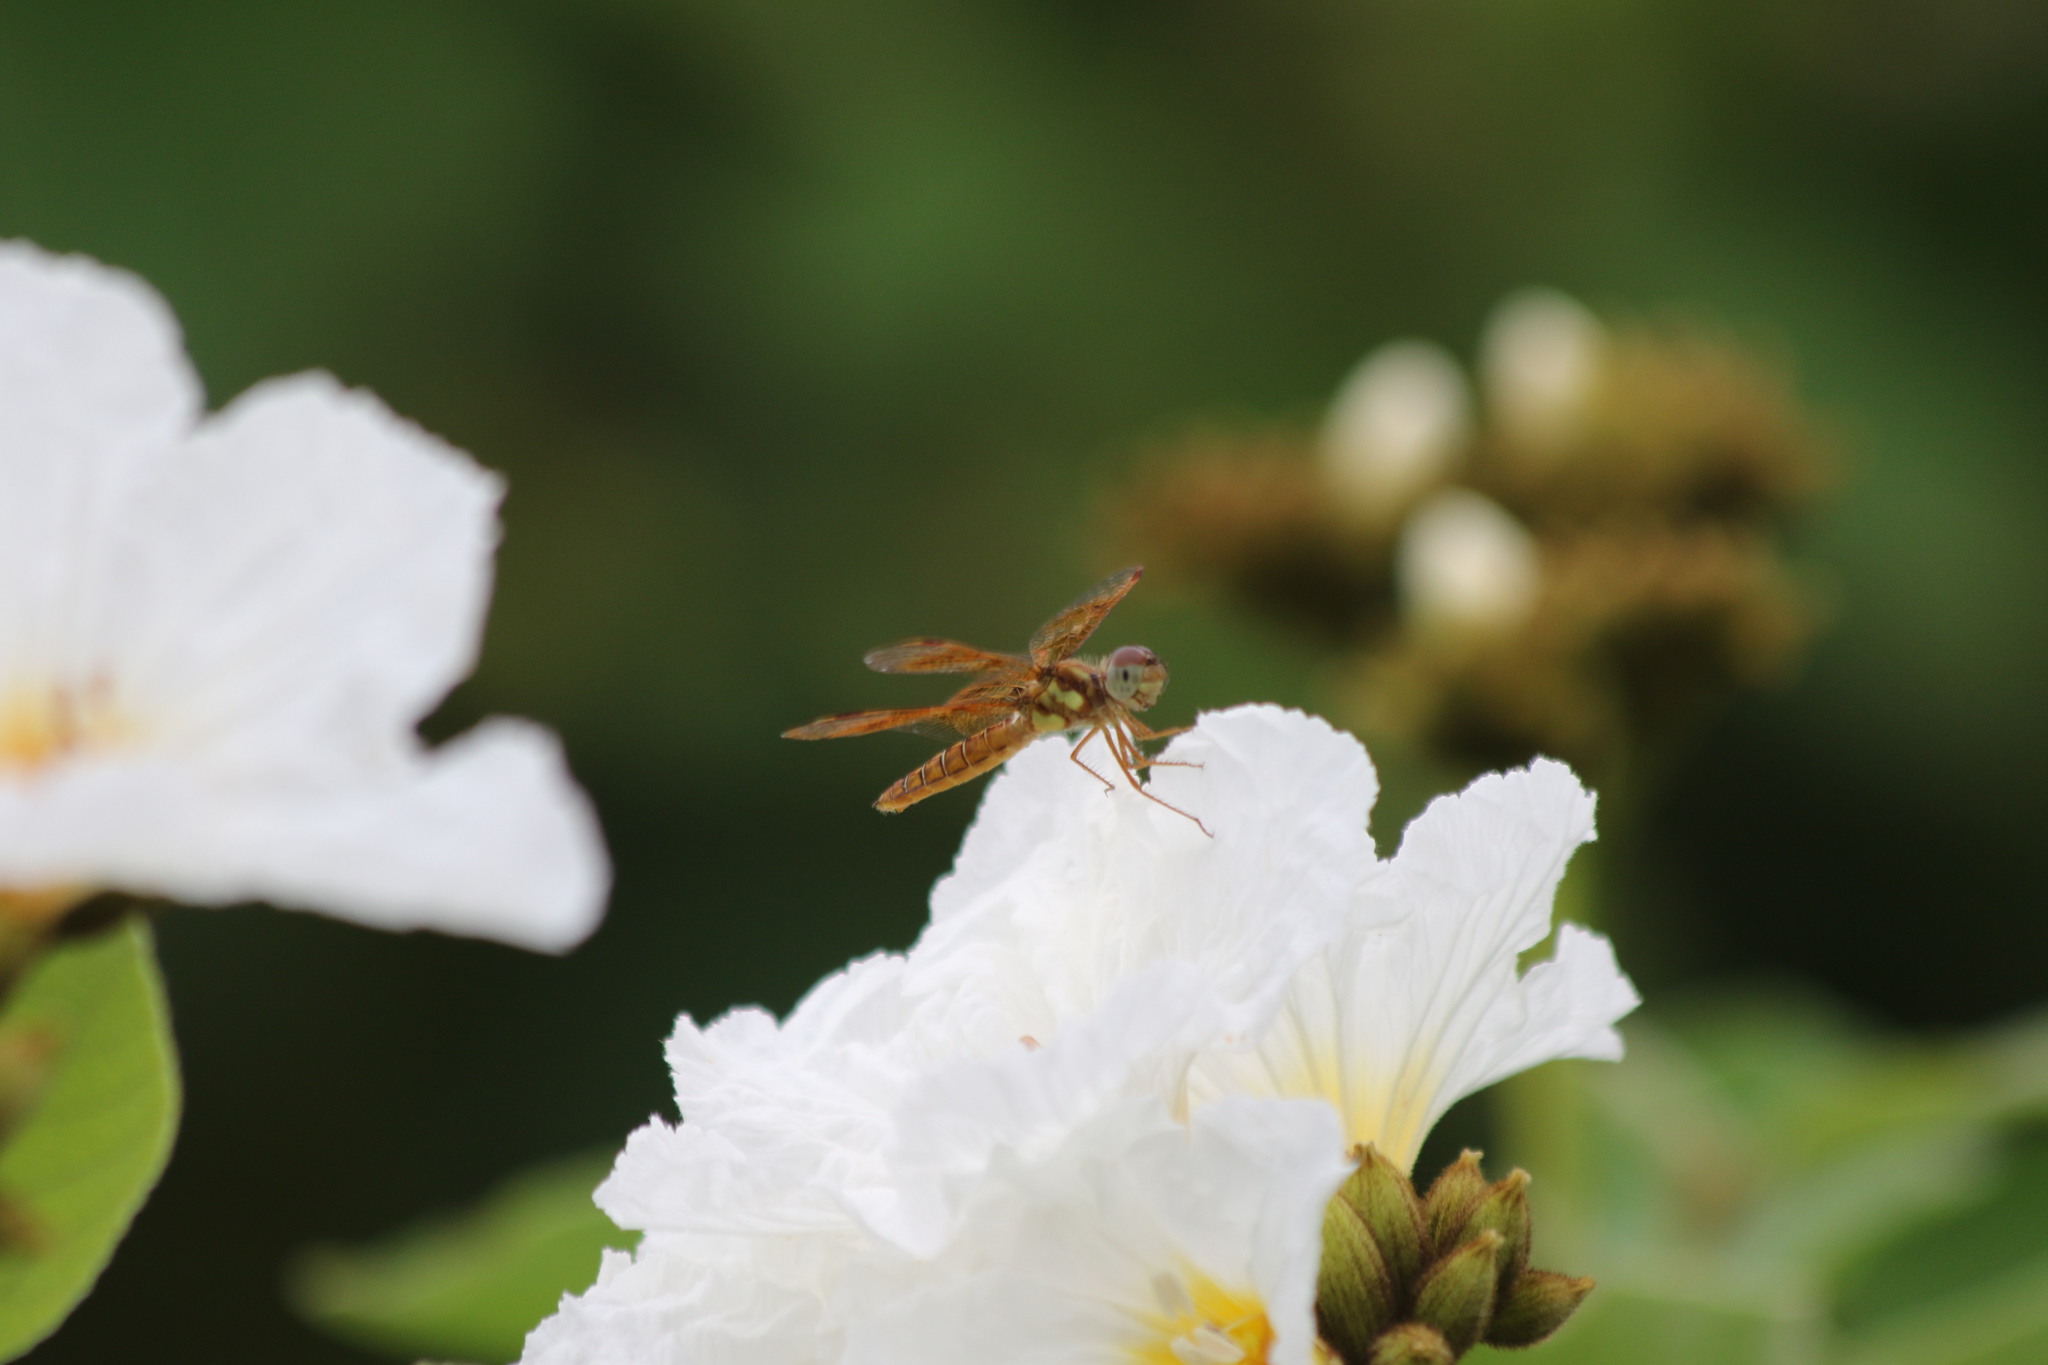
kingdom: Animalia
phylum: Arthropoda
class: Insecta
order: Odonata
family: Libellulidae
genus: Perithemis
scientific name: Perithemis tenera
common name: Eastern amberwing
